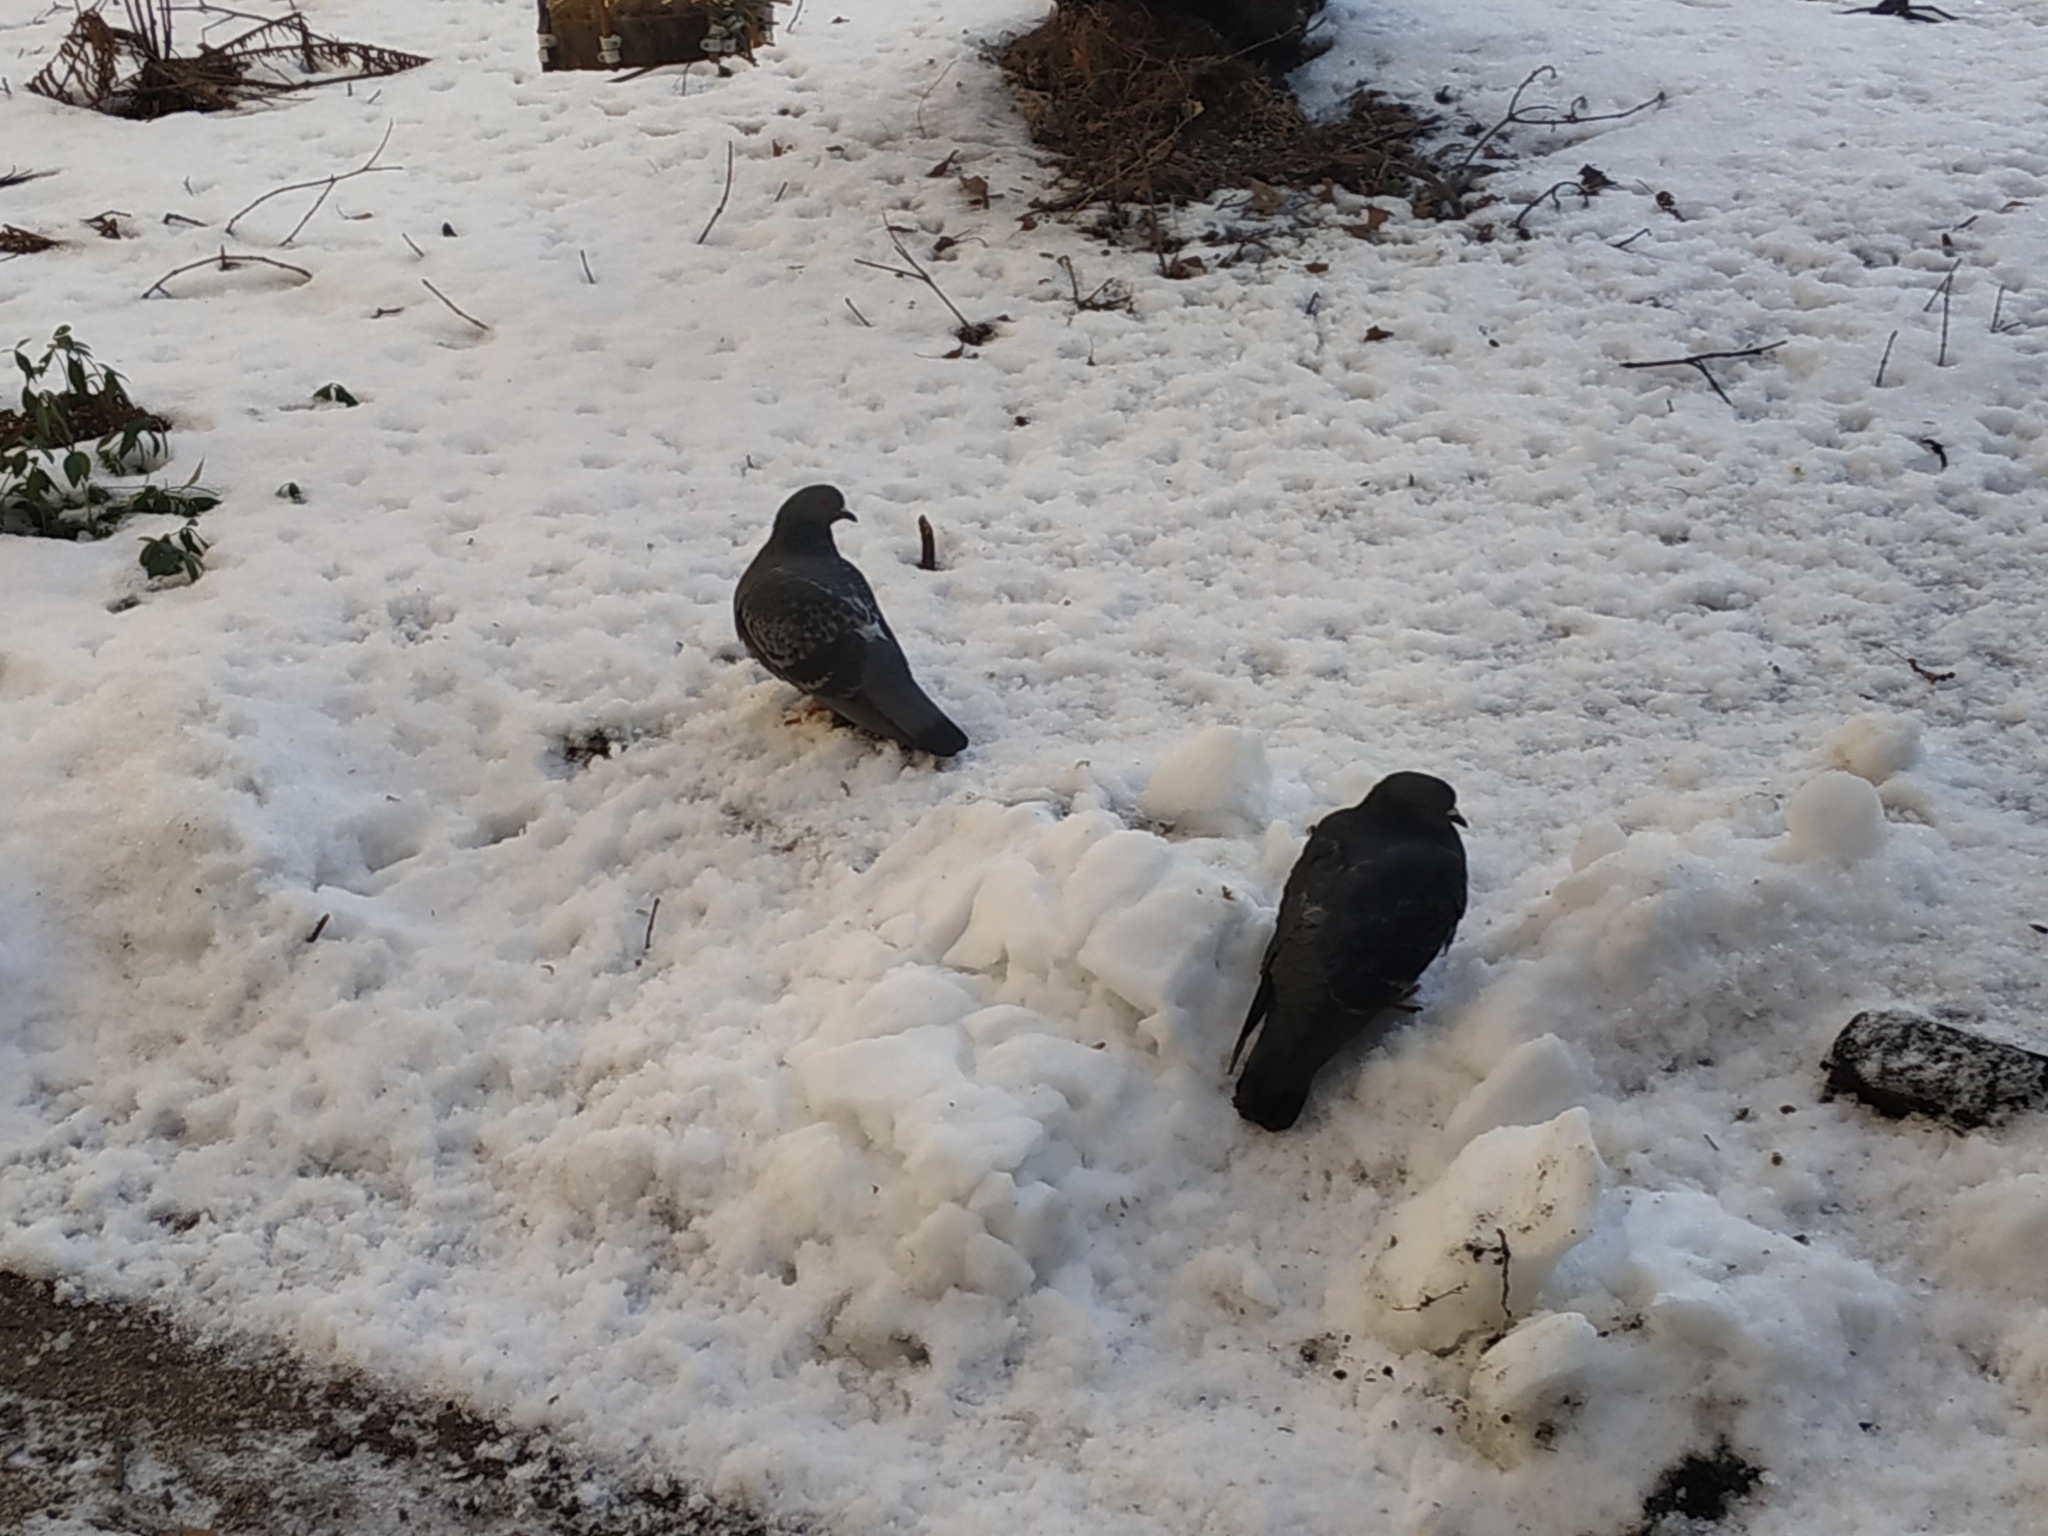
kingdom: Animalia
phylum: Chordata
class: Aves
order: Columbiformes
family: Columbidae
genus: Columba
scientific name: Columba livia
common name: Rock pigeon
